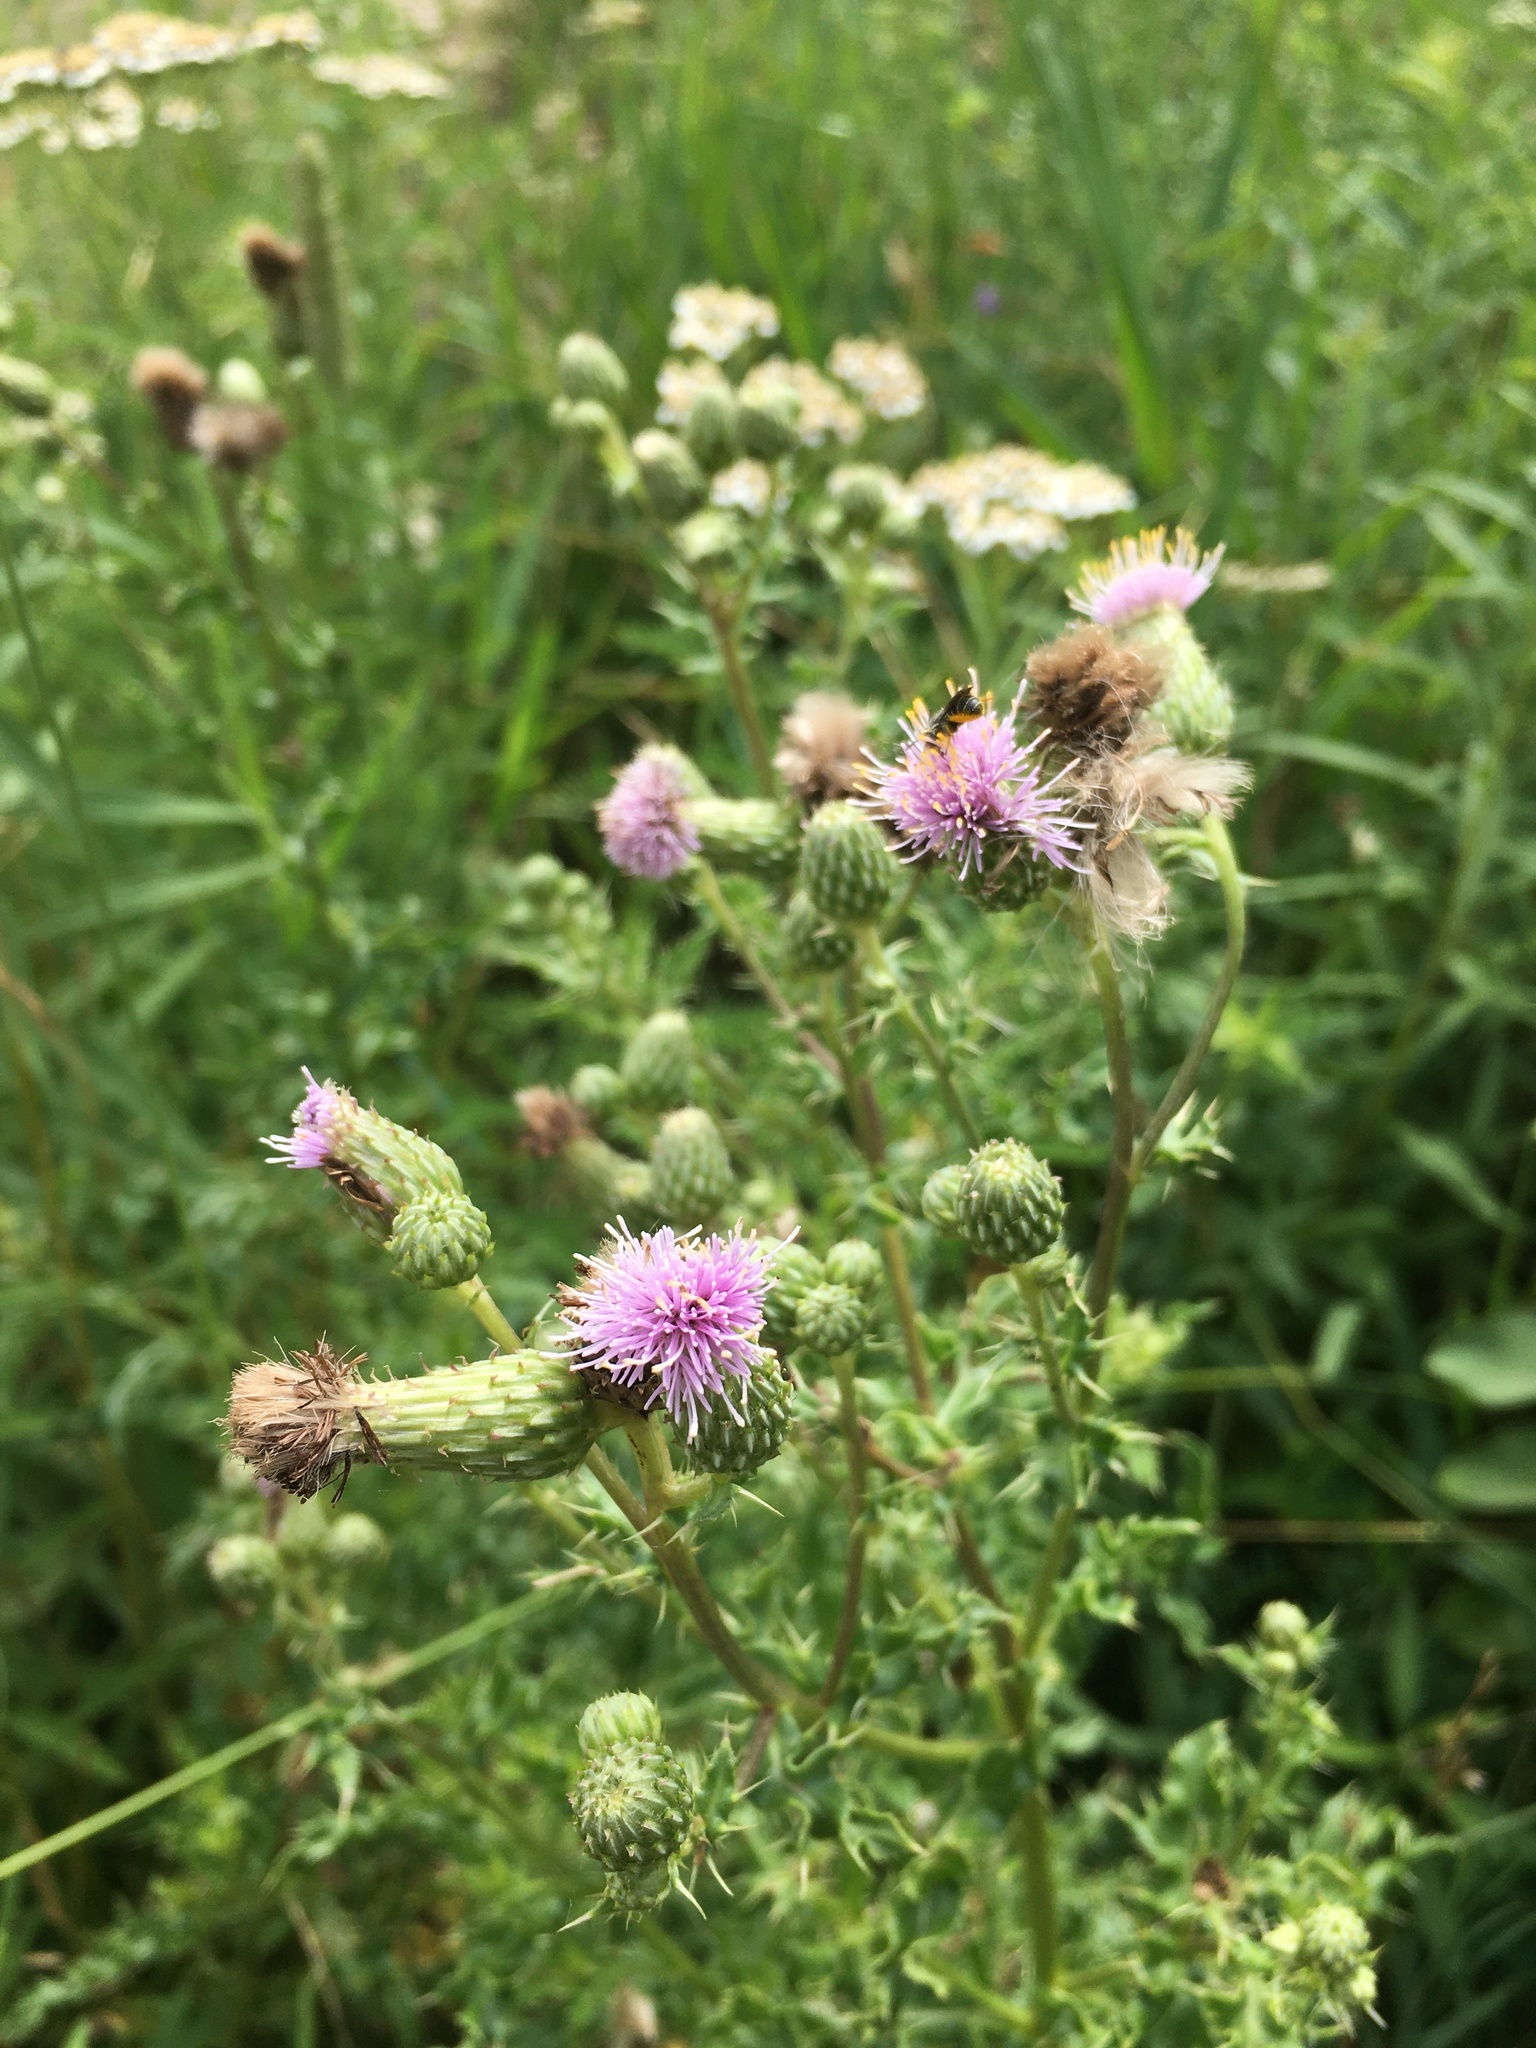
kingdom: Plantae
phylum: Tracheophyta
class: Magnoliopsida
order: Asterales
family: Asteraceae
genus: Cirsium
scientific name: Cirsium arvense
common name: Creeping thistle
